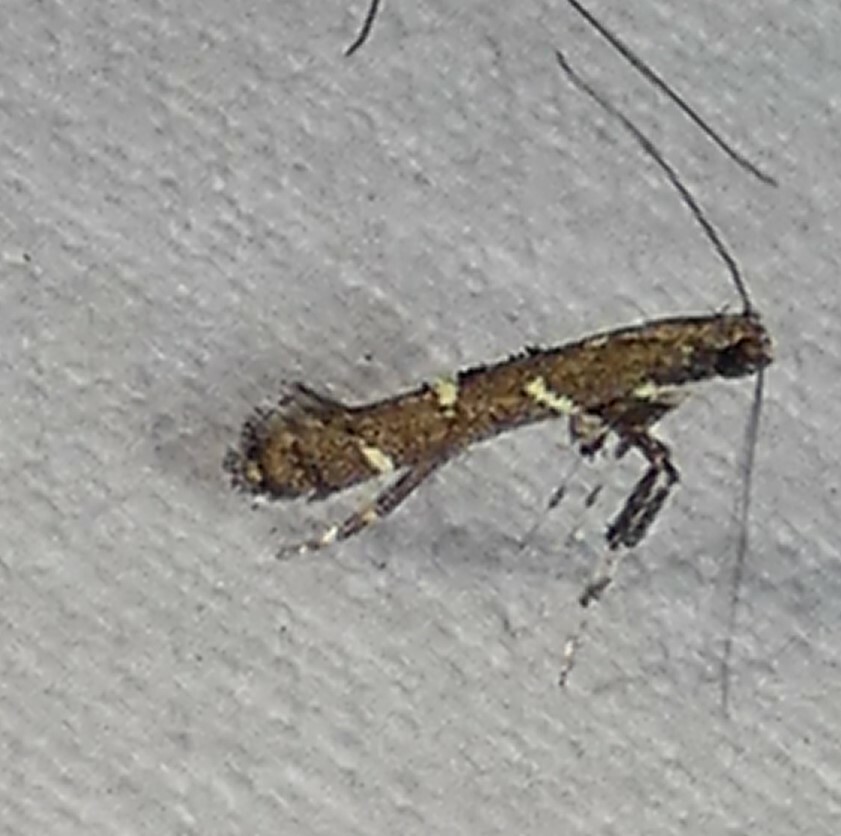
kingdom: Animalia
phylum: Arthropoda
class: Insecta
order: Lepidoptera
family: Gracillariidae
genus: Caloptilia
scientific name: Caloptilia triadicae
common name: Tallow leaf roller
